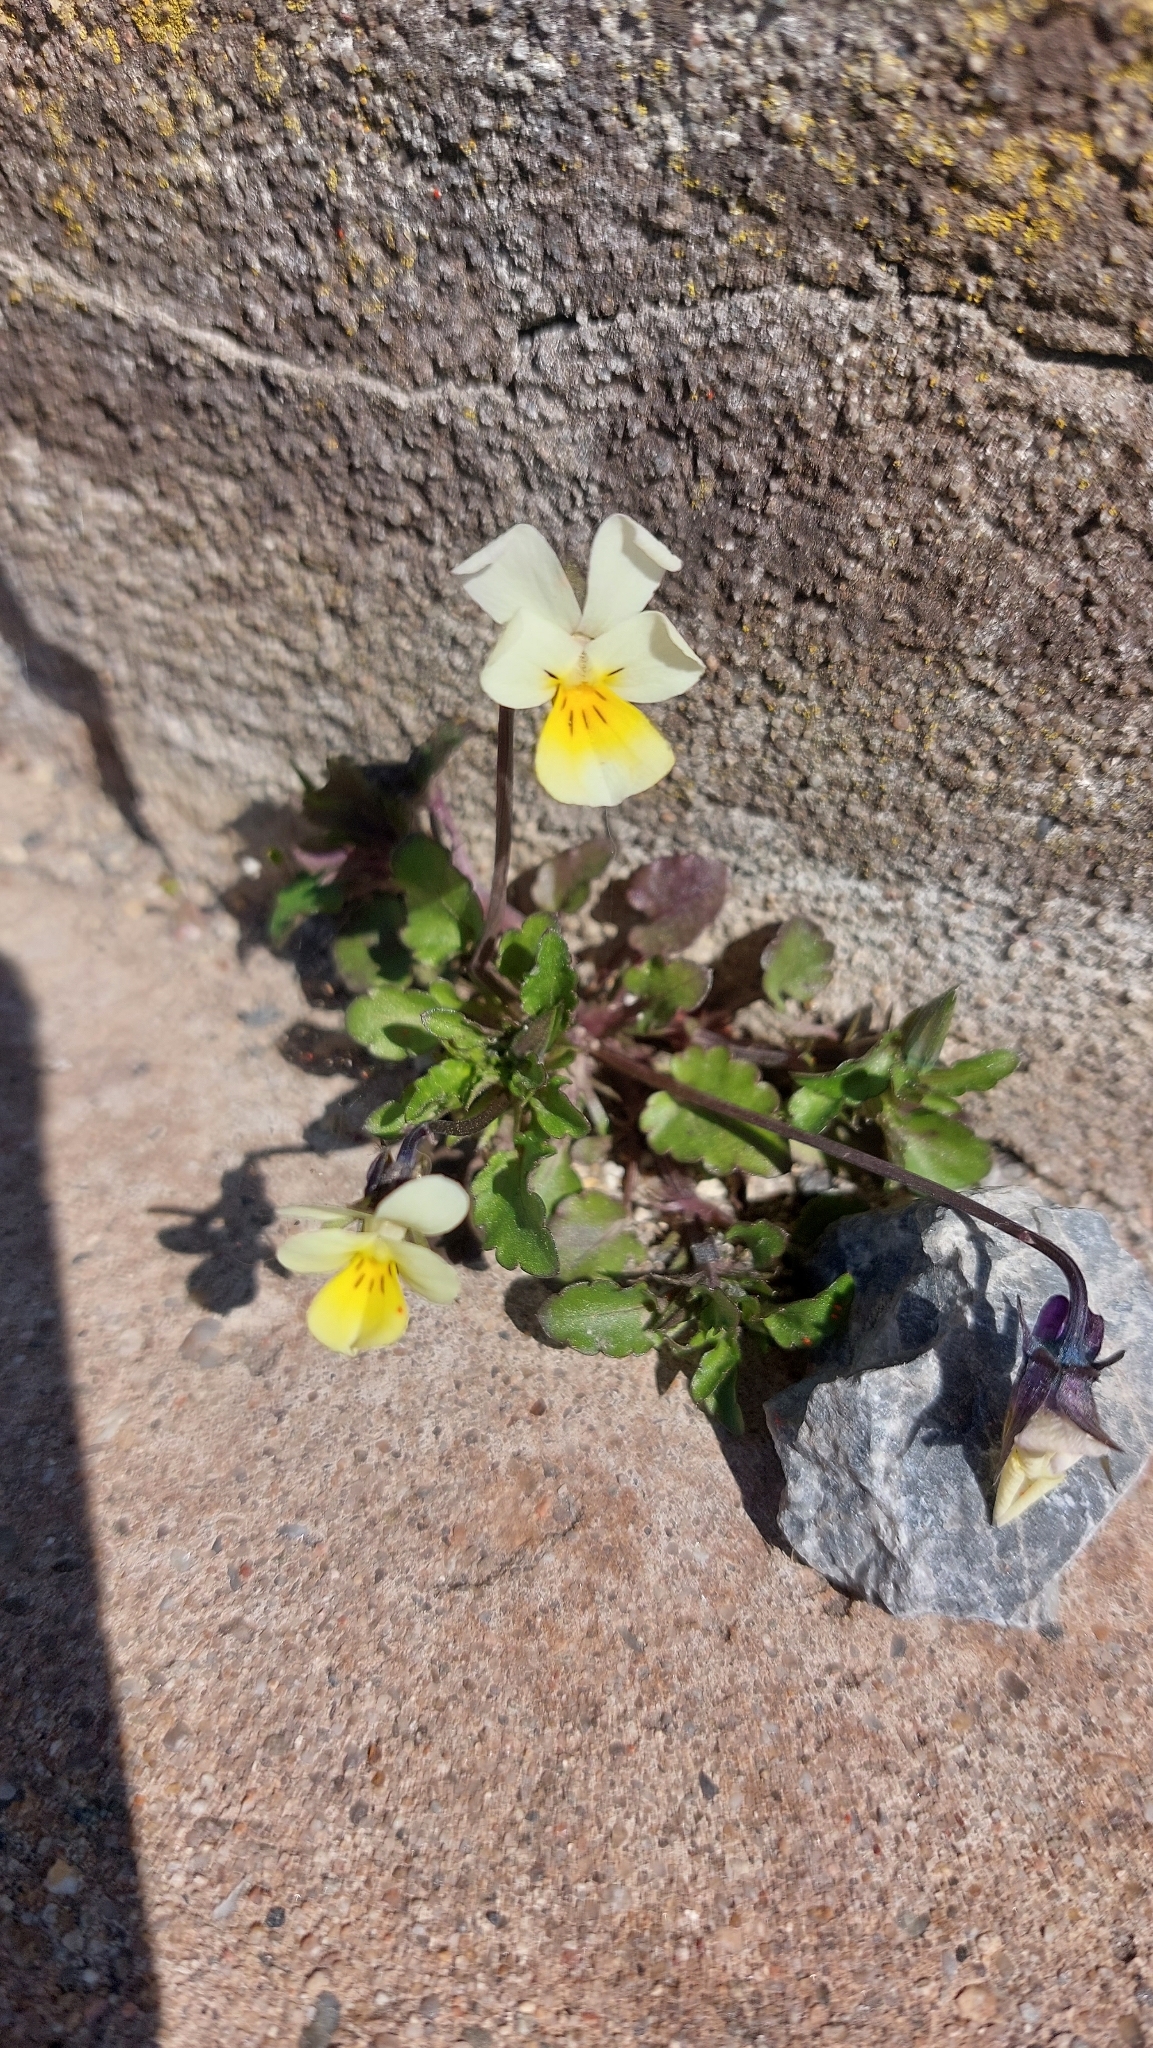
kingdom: Plantae
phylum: Tracheophyta
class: Magnoliopsida
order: Malpighiales
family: Violaceae
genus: Viola
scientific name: Viola arvensis
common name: Field pansy
